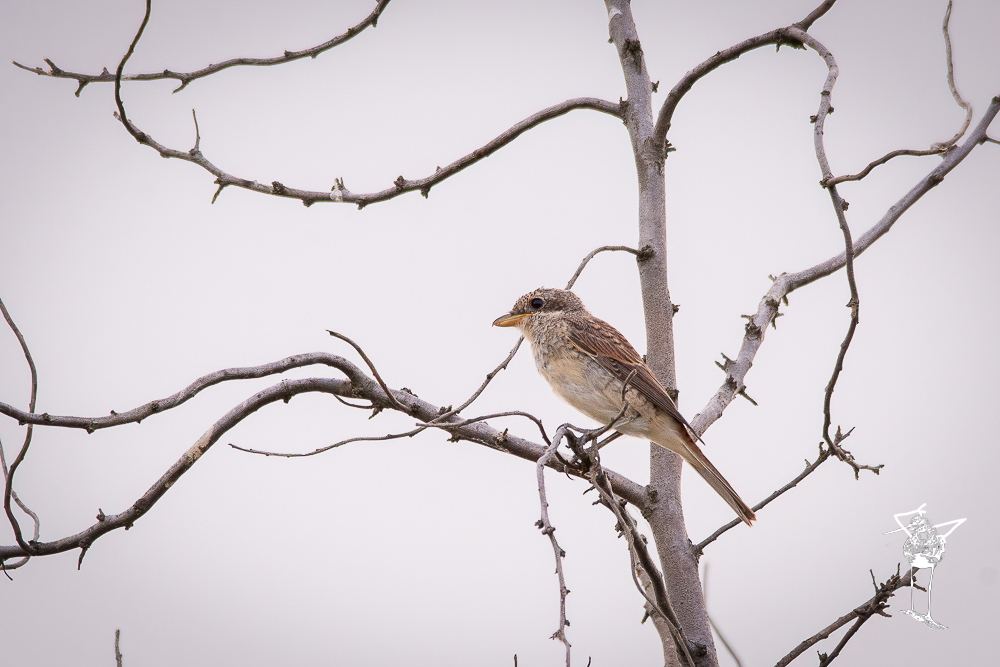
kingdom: Animalia
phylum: Chordata
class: Aves
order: Passeriformes
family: Laniidae
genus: Lanius
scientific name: Lanius collurio
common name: Red-backed shrike
